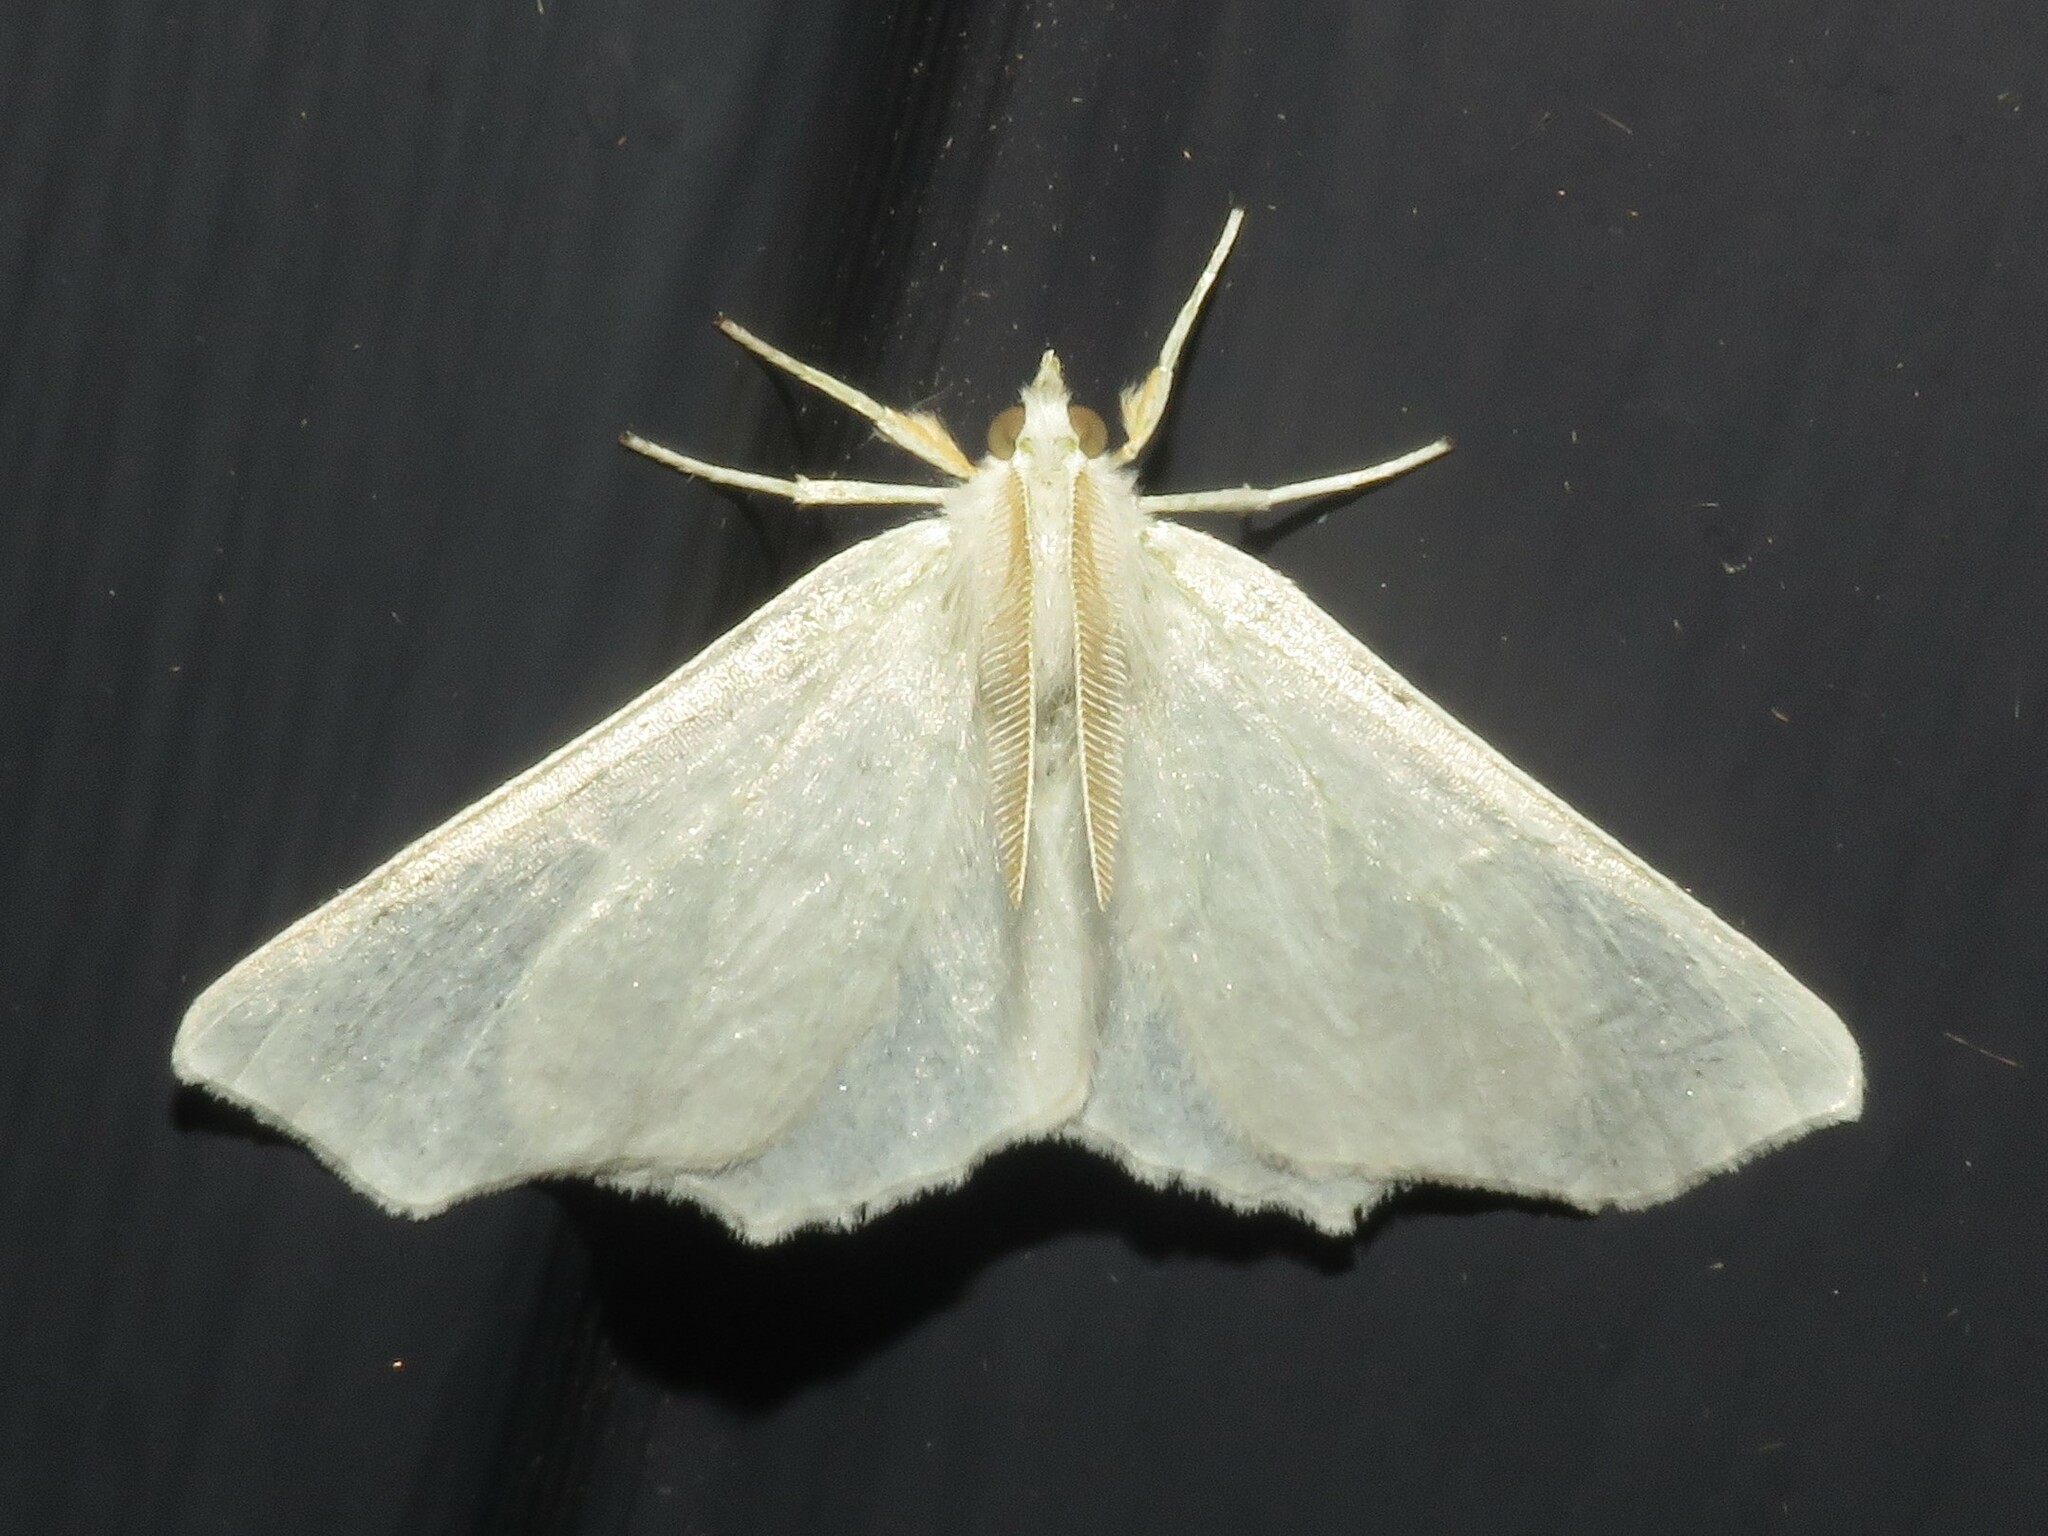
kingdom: Animalia
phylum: Arthropoda
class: Insecta
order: Lepidoptera
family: Geometridae
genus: Ennomos
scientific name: Ennomos subsignaria
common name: Elm spanworm
